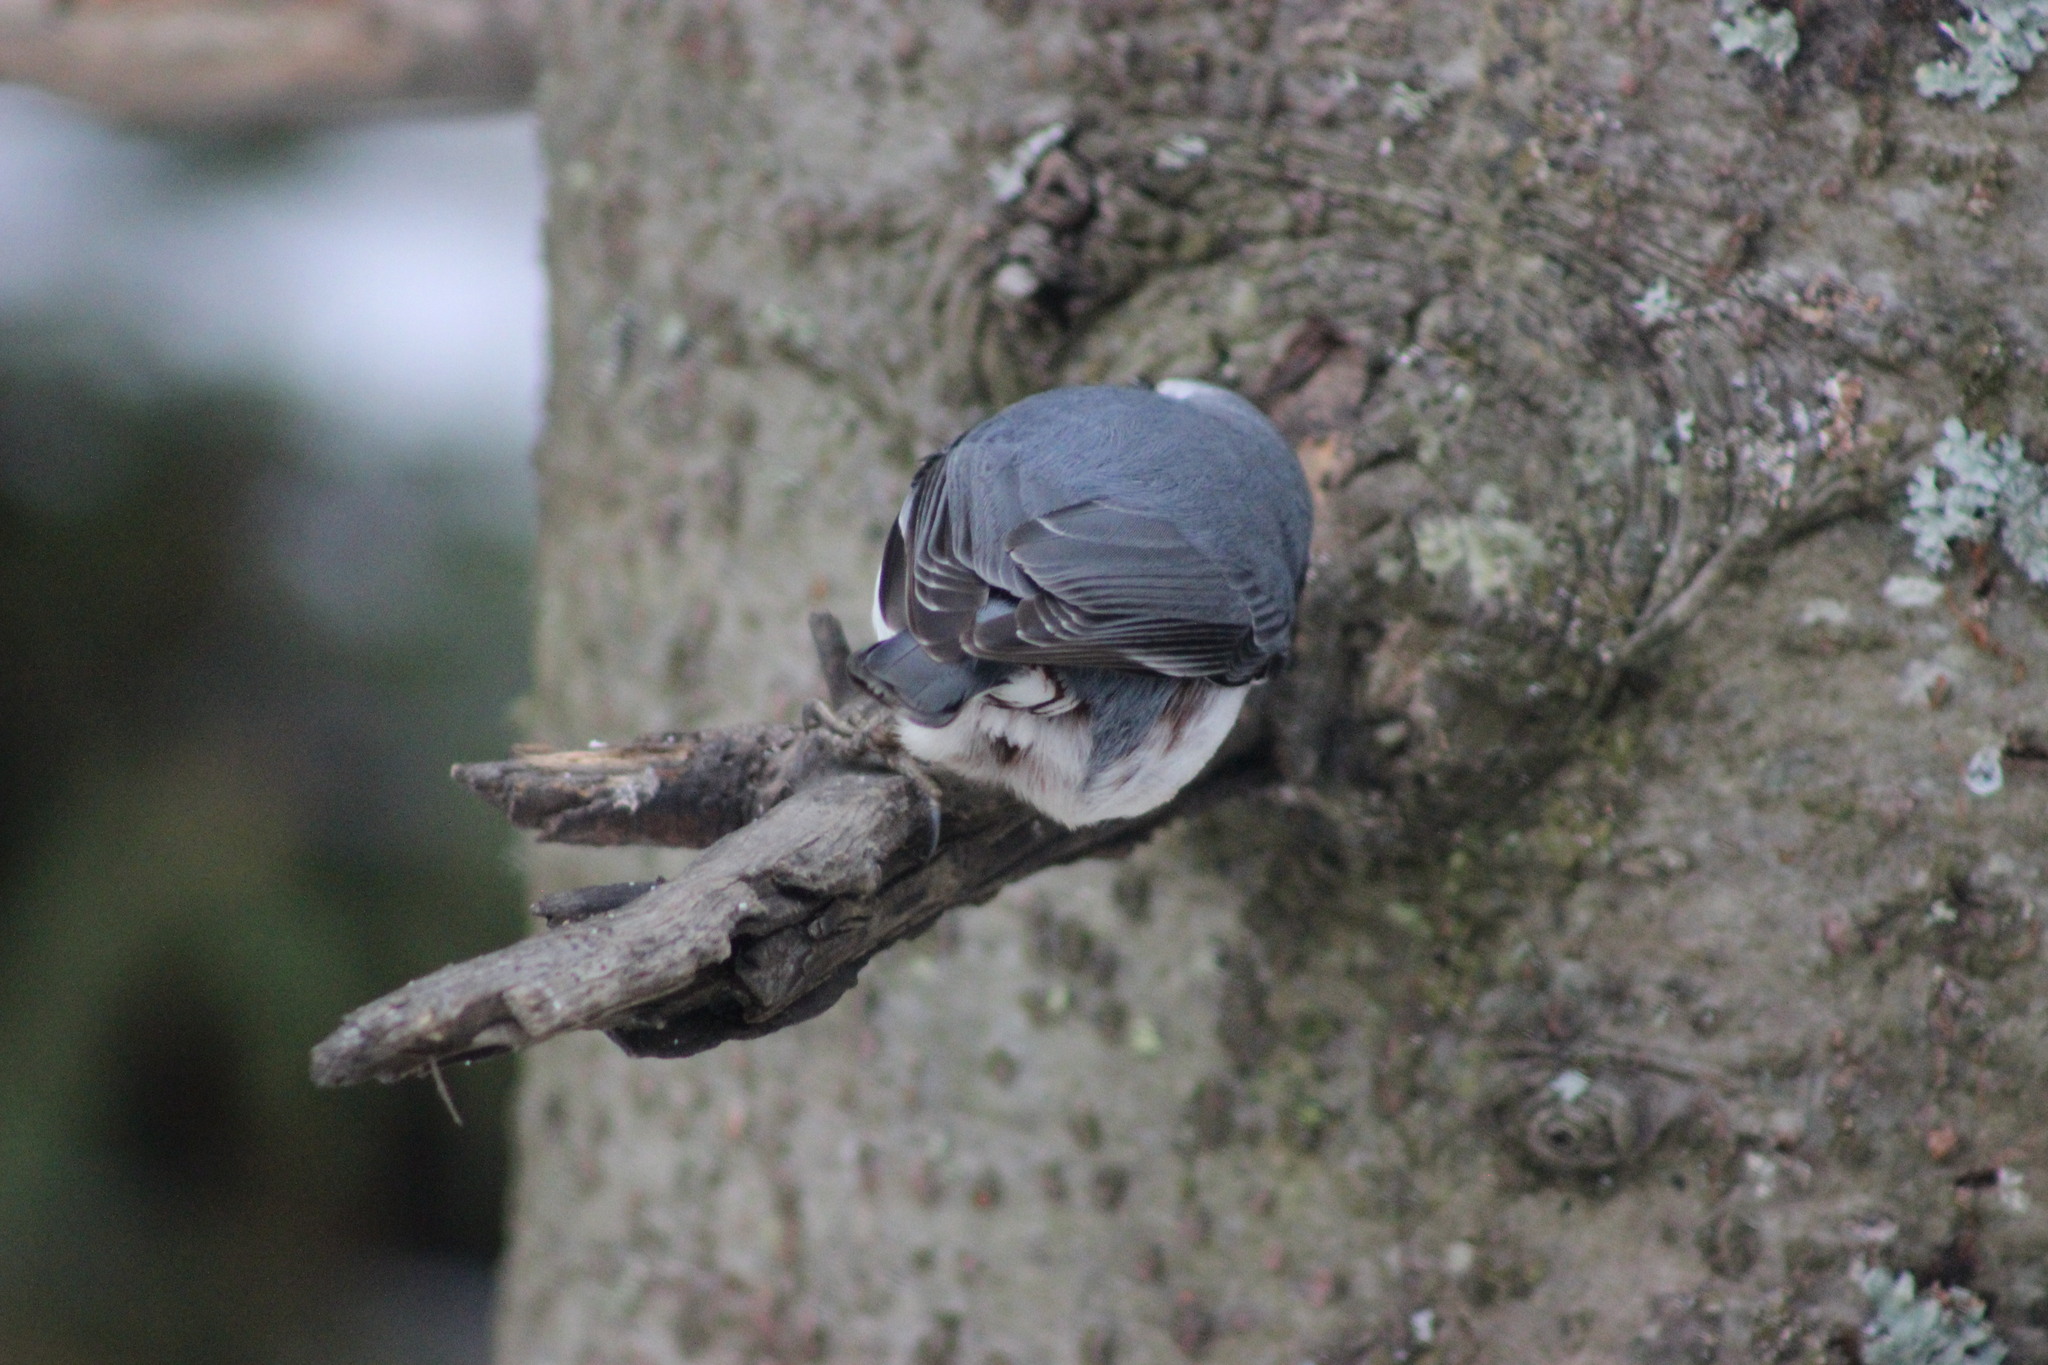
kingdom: Animalia
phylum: Chordata
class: Aves
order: Passeriformes
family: Sittidae
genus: Sitta
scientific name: Sitta europaea
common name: Eurasian nuthatch
